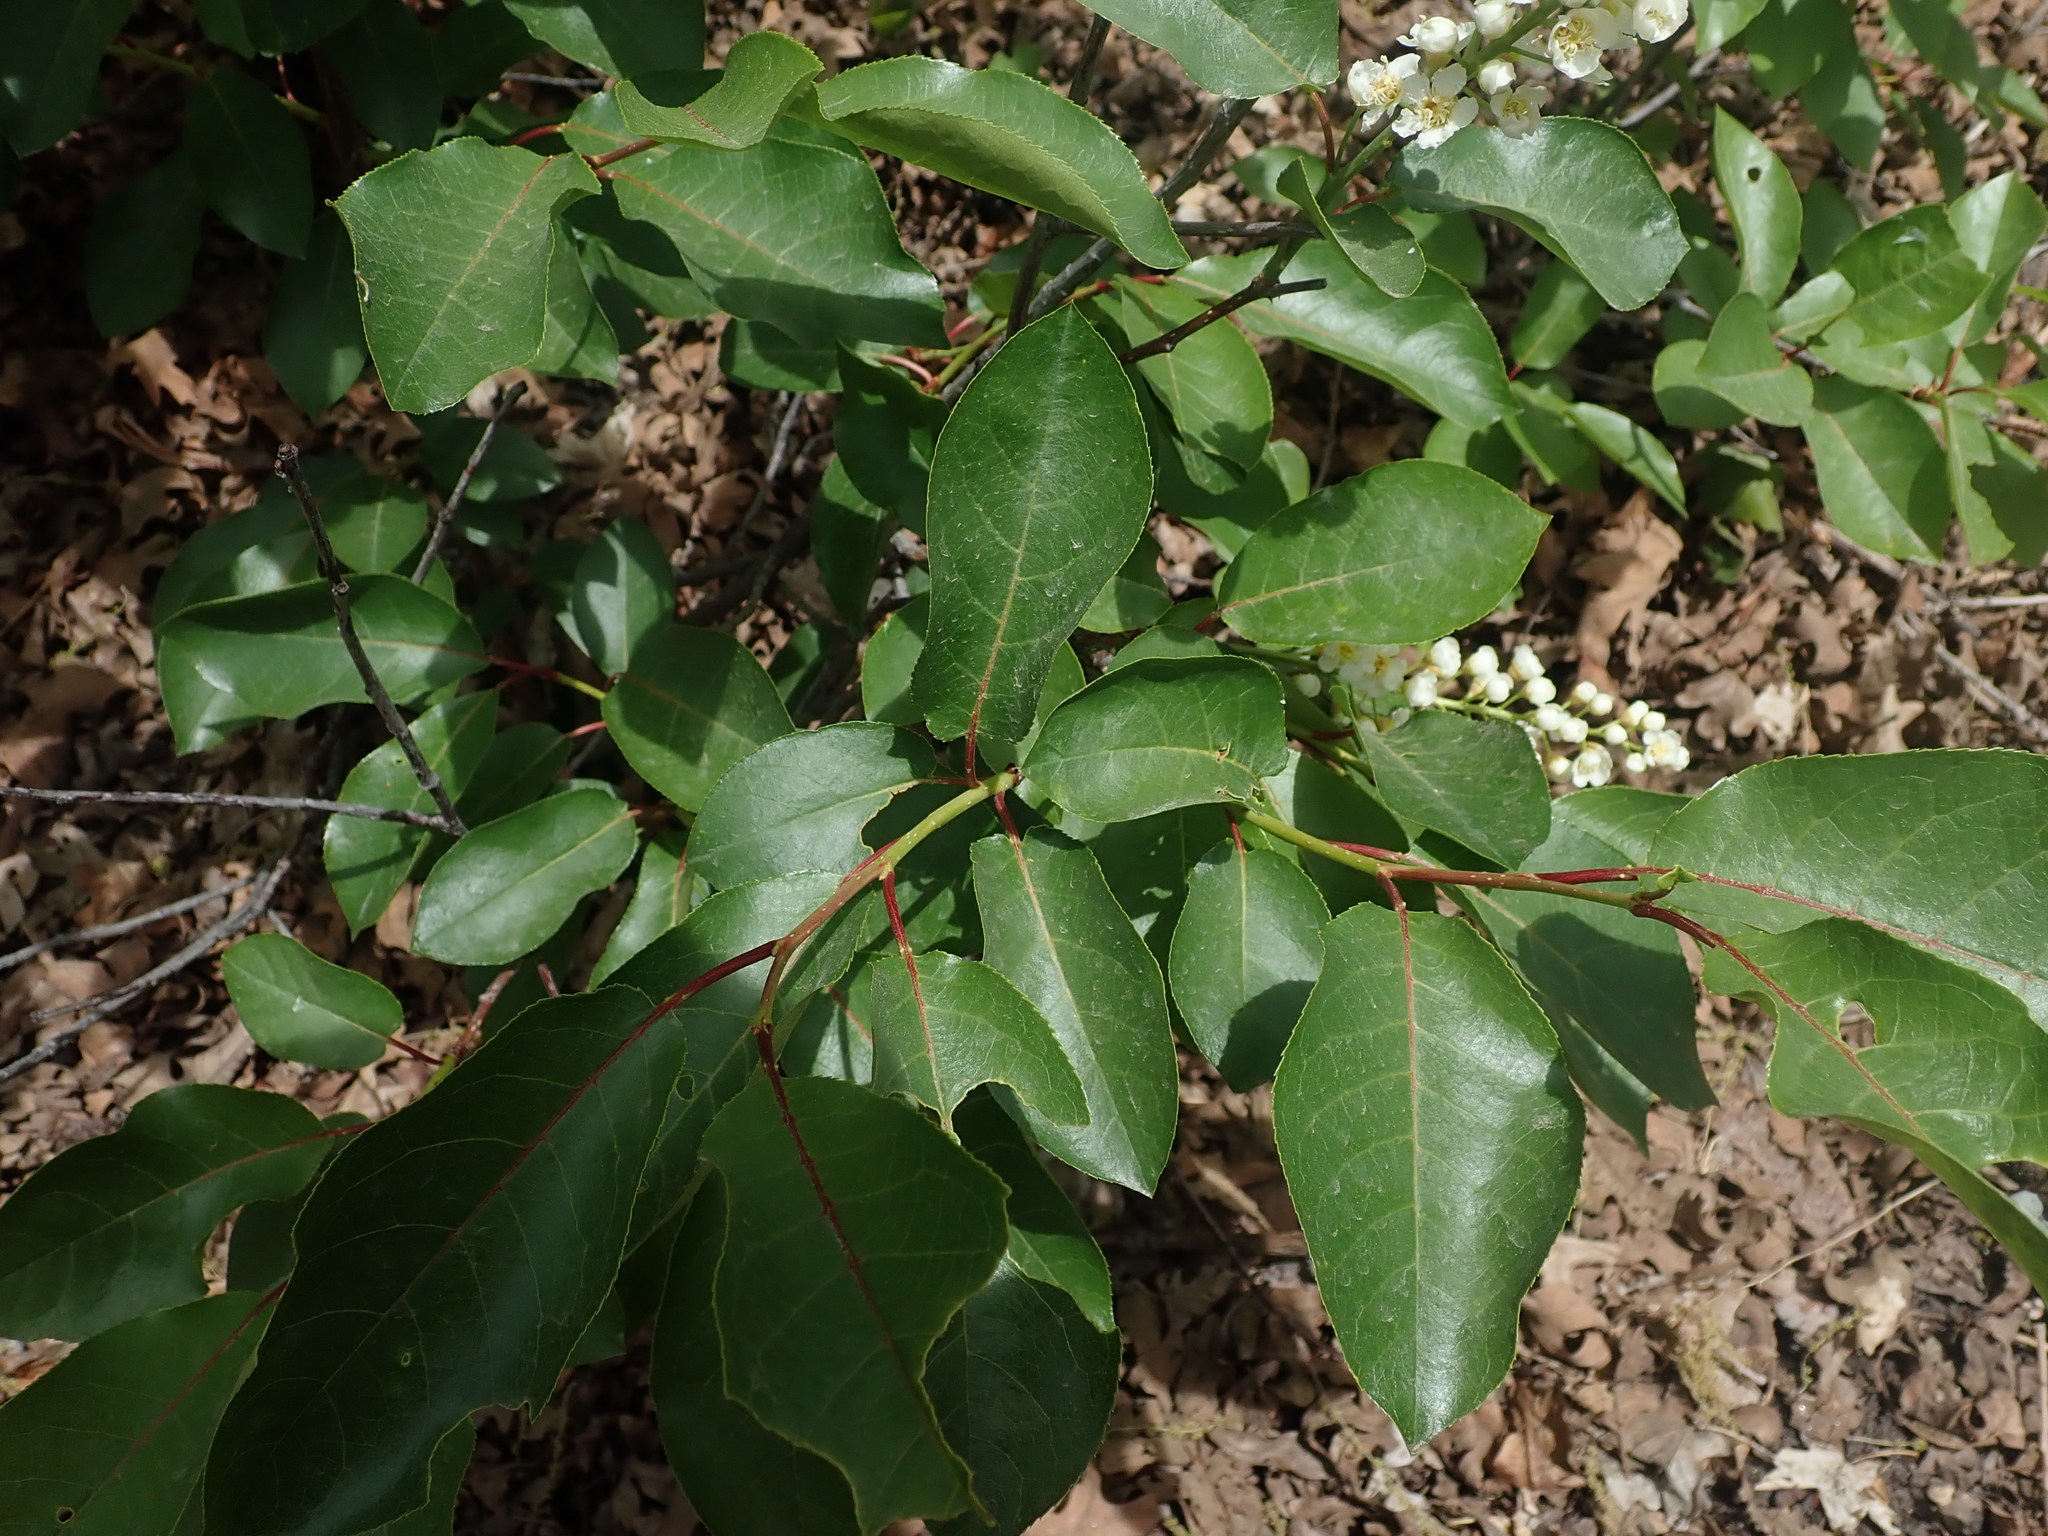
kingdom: Plantae
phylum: Tracheophyta
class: Magnoliopsida
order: Rosales
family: Rosaceae
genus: Prunus
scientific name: Prunus virginiana
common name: Chokecherry
